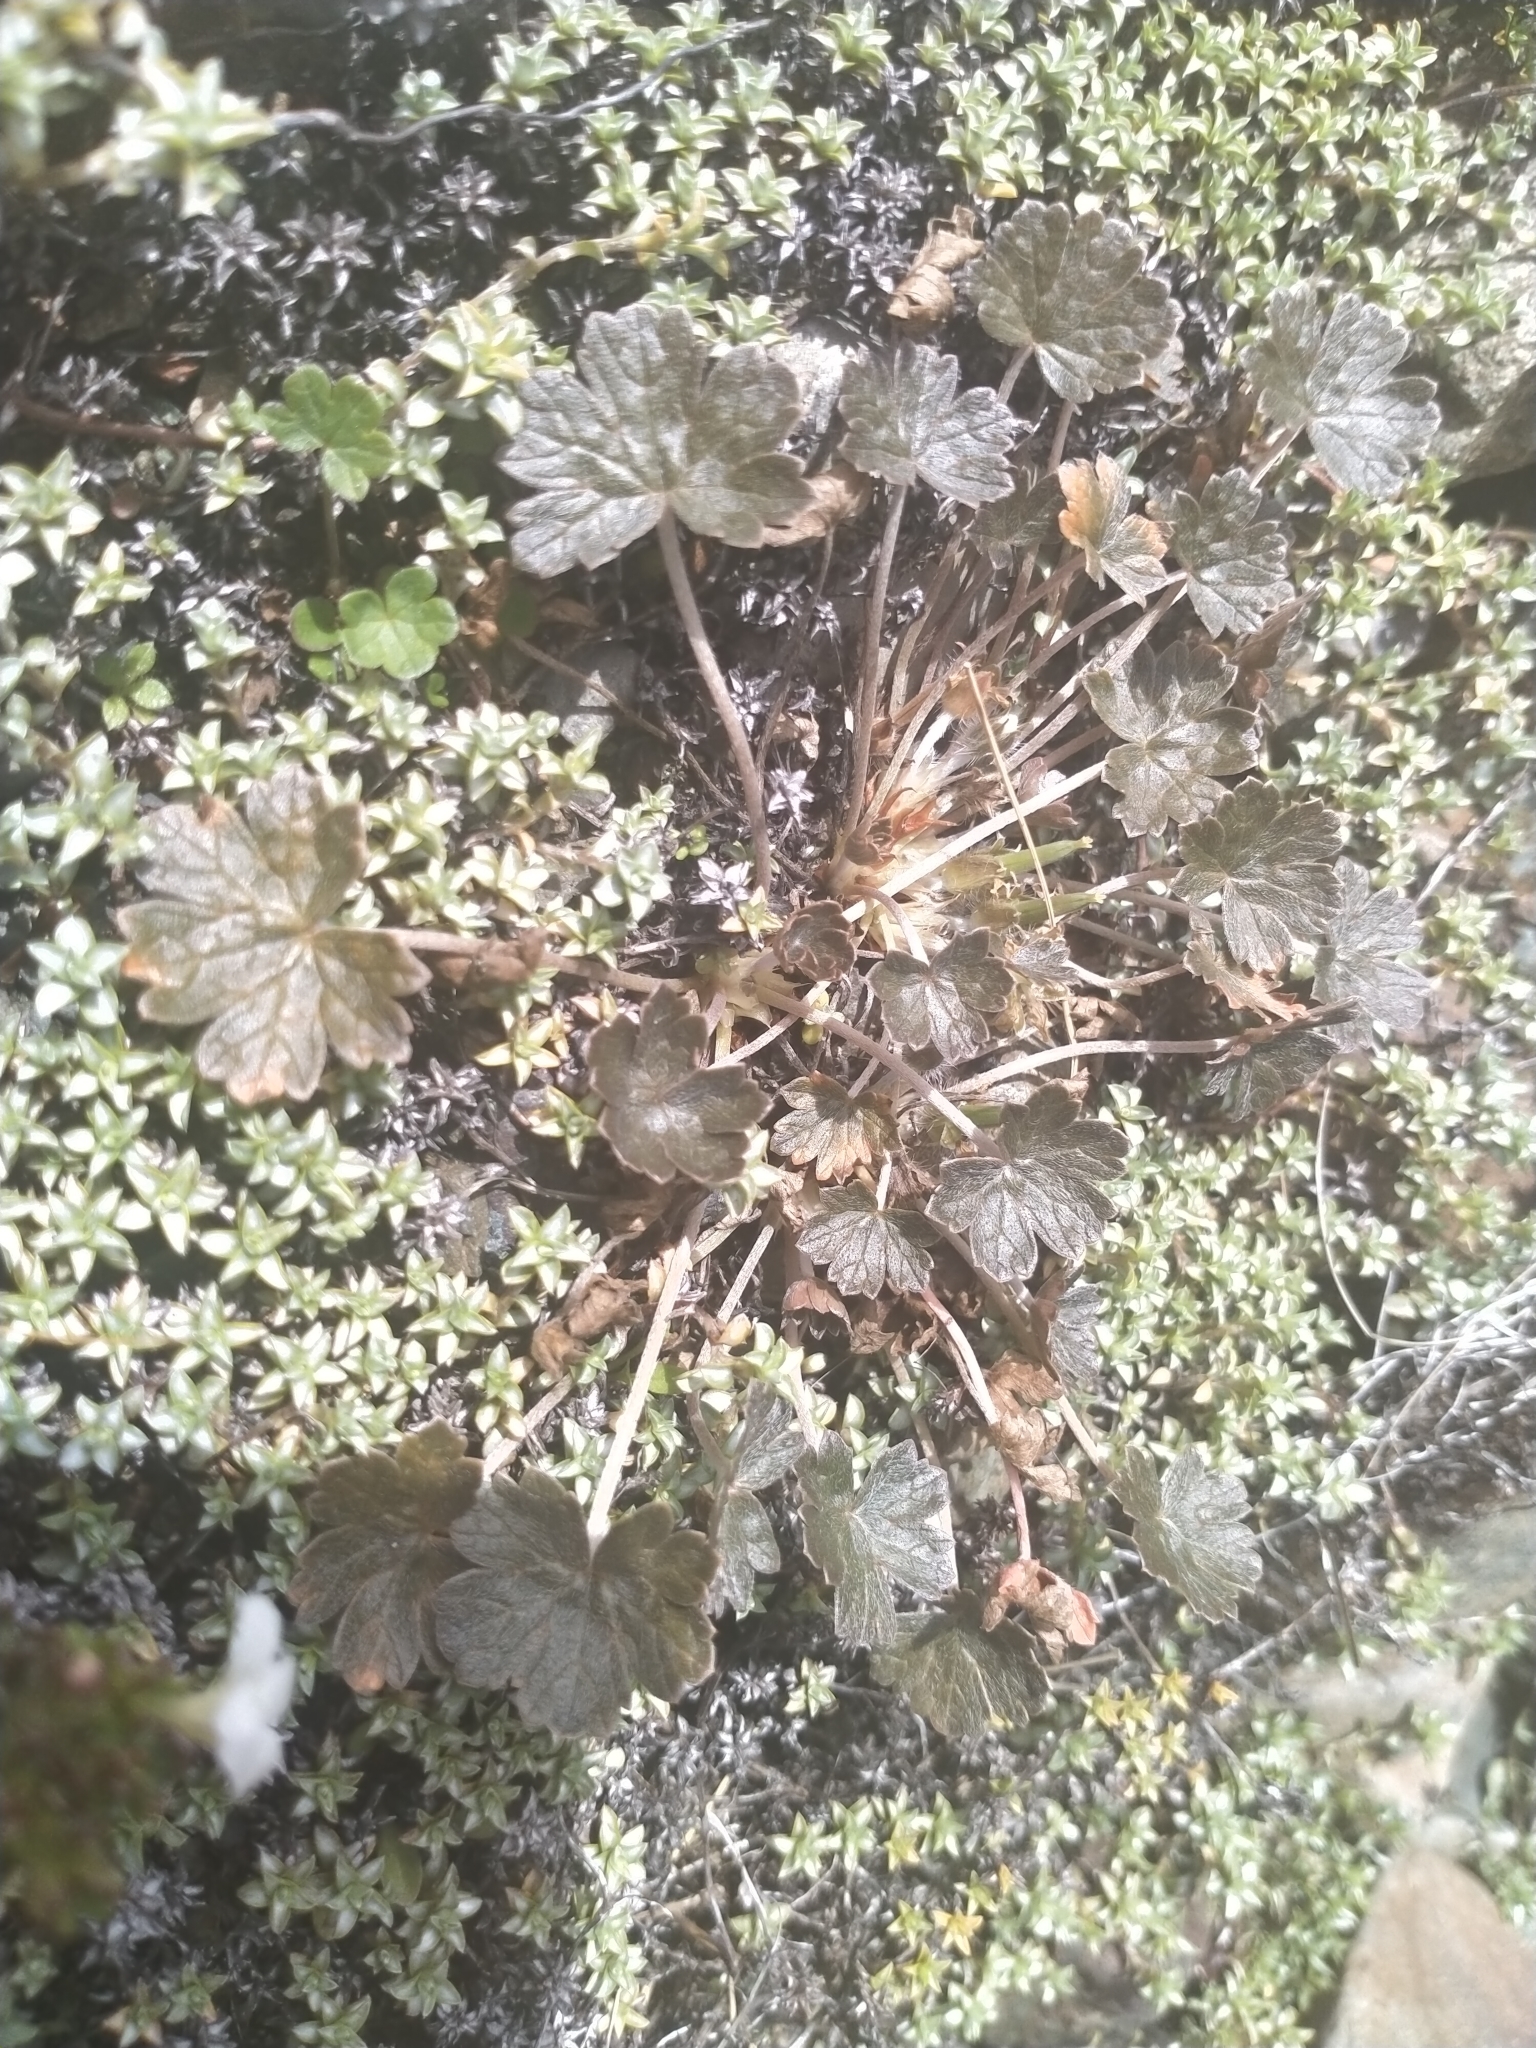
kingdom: Plantae
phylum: Tracheophyta
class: Magnoliopsida
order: Geraniales
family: Geraniaceae
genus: Geranium
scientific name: Geranium brevicaule
